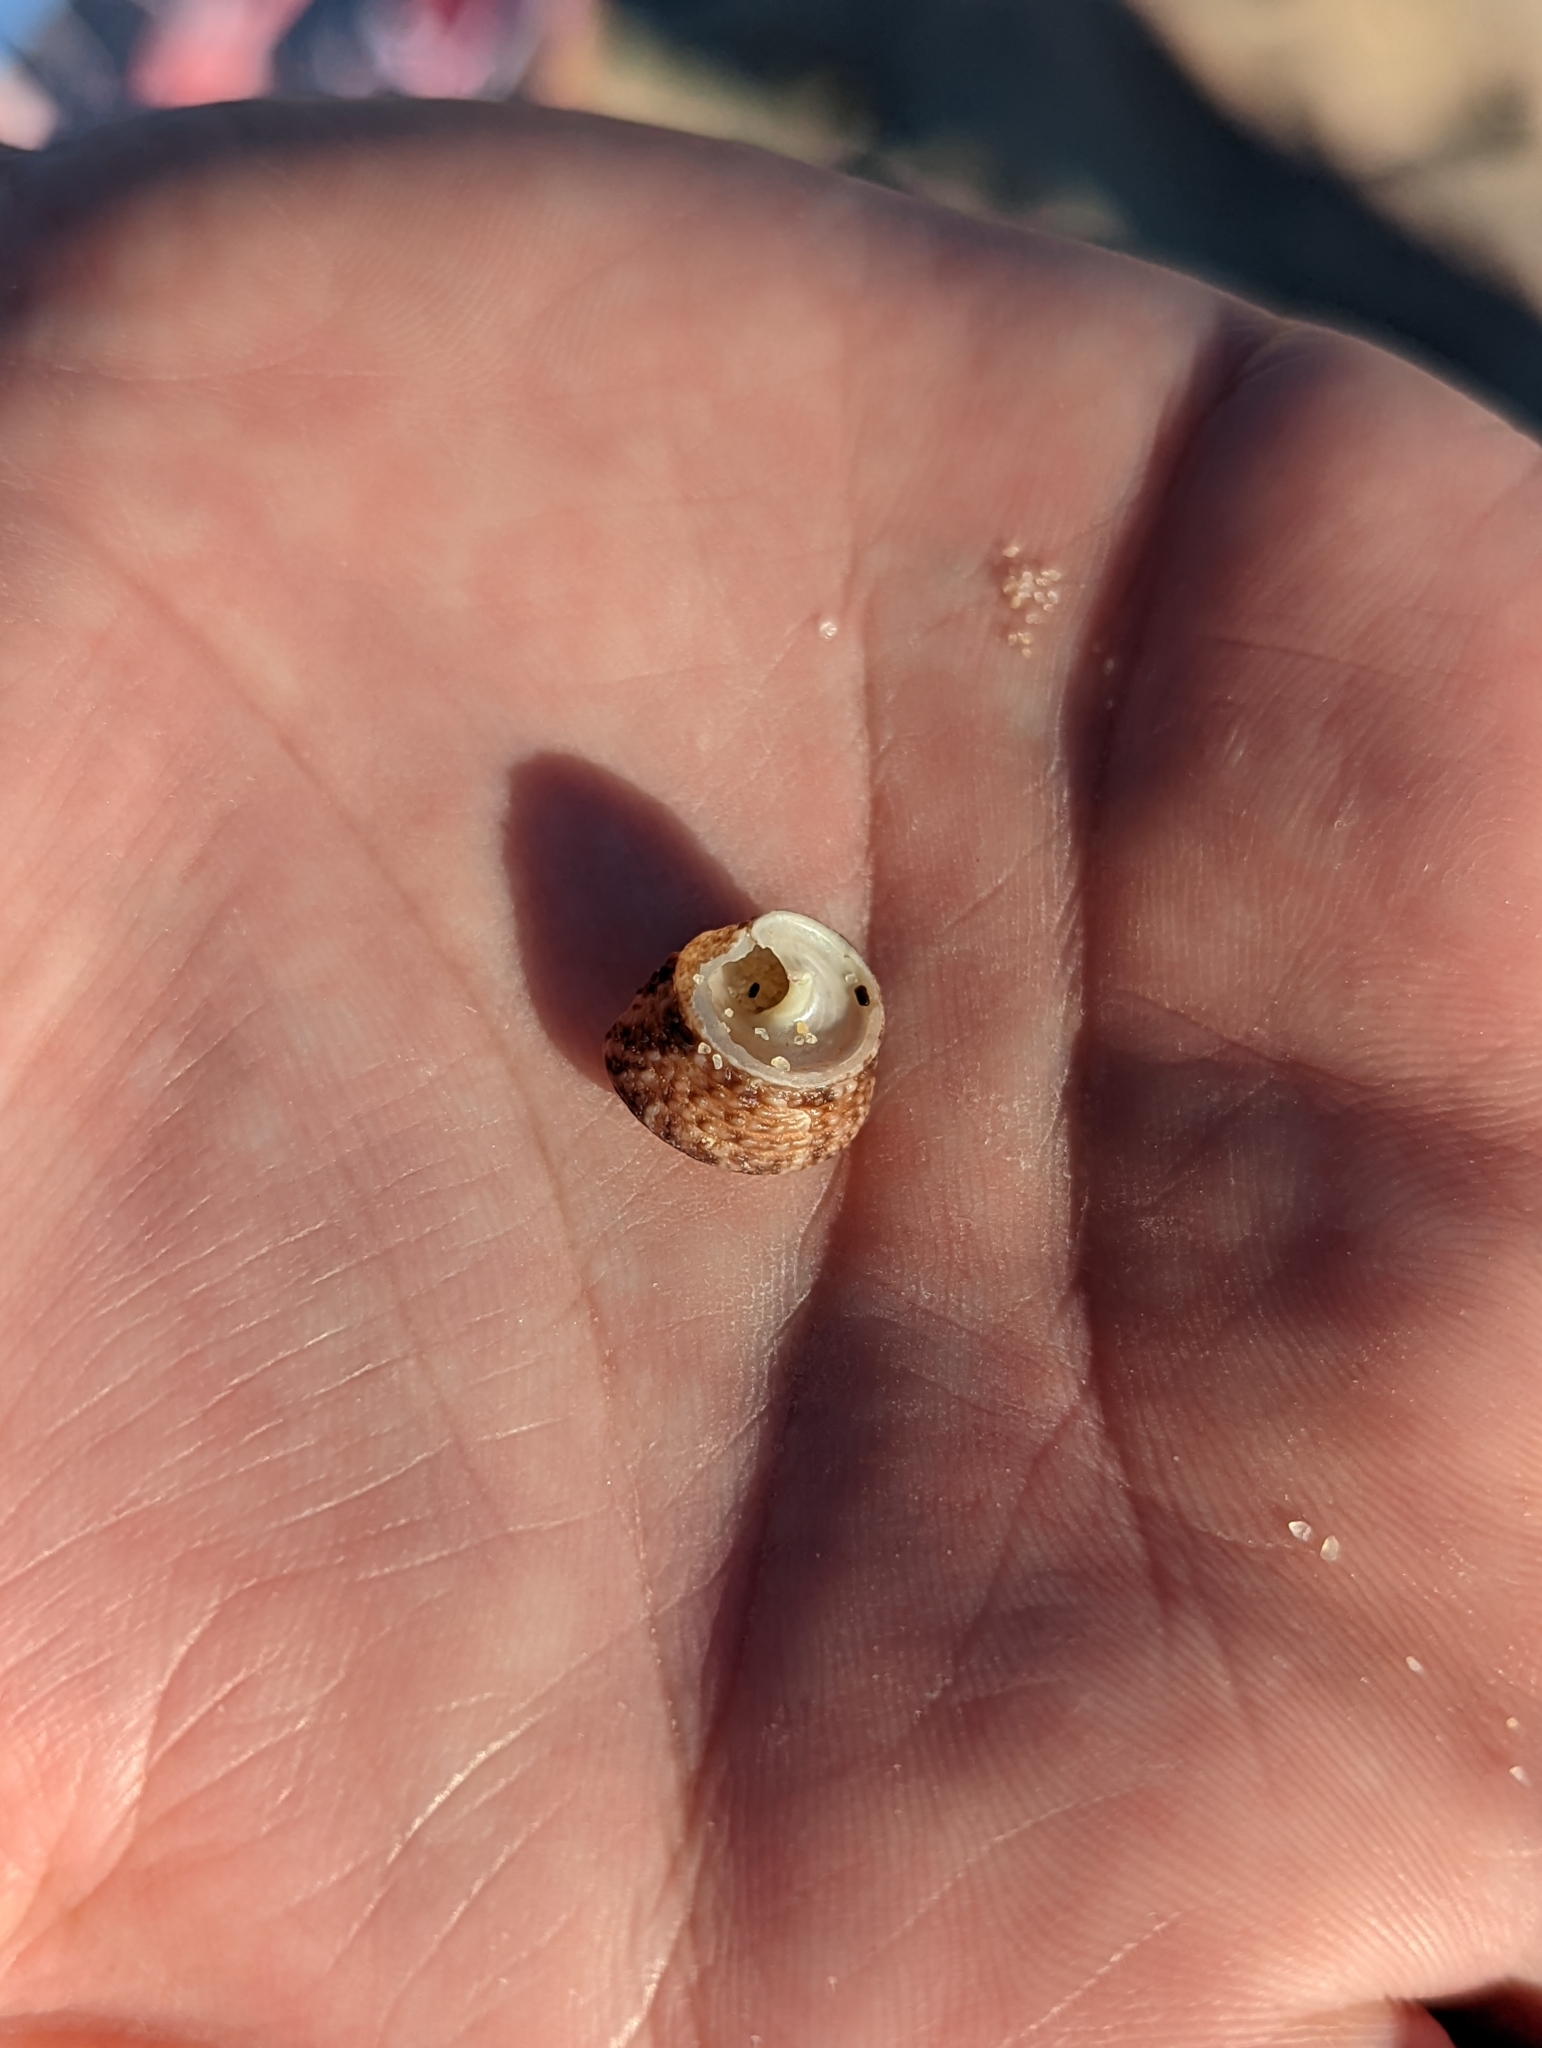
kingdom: Animalia
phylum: Mollusca
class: Gastropoda
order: Trochida
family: Trochidae
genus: Calthalotia
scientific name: Calthalotia fragum
